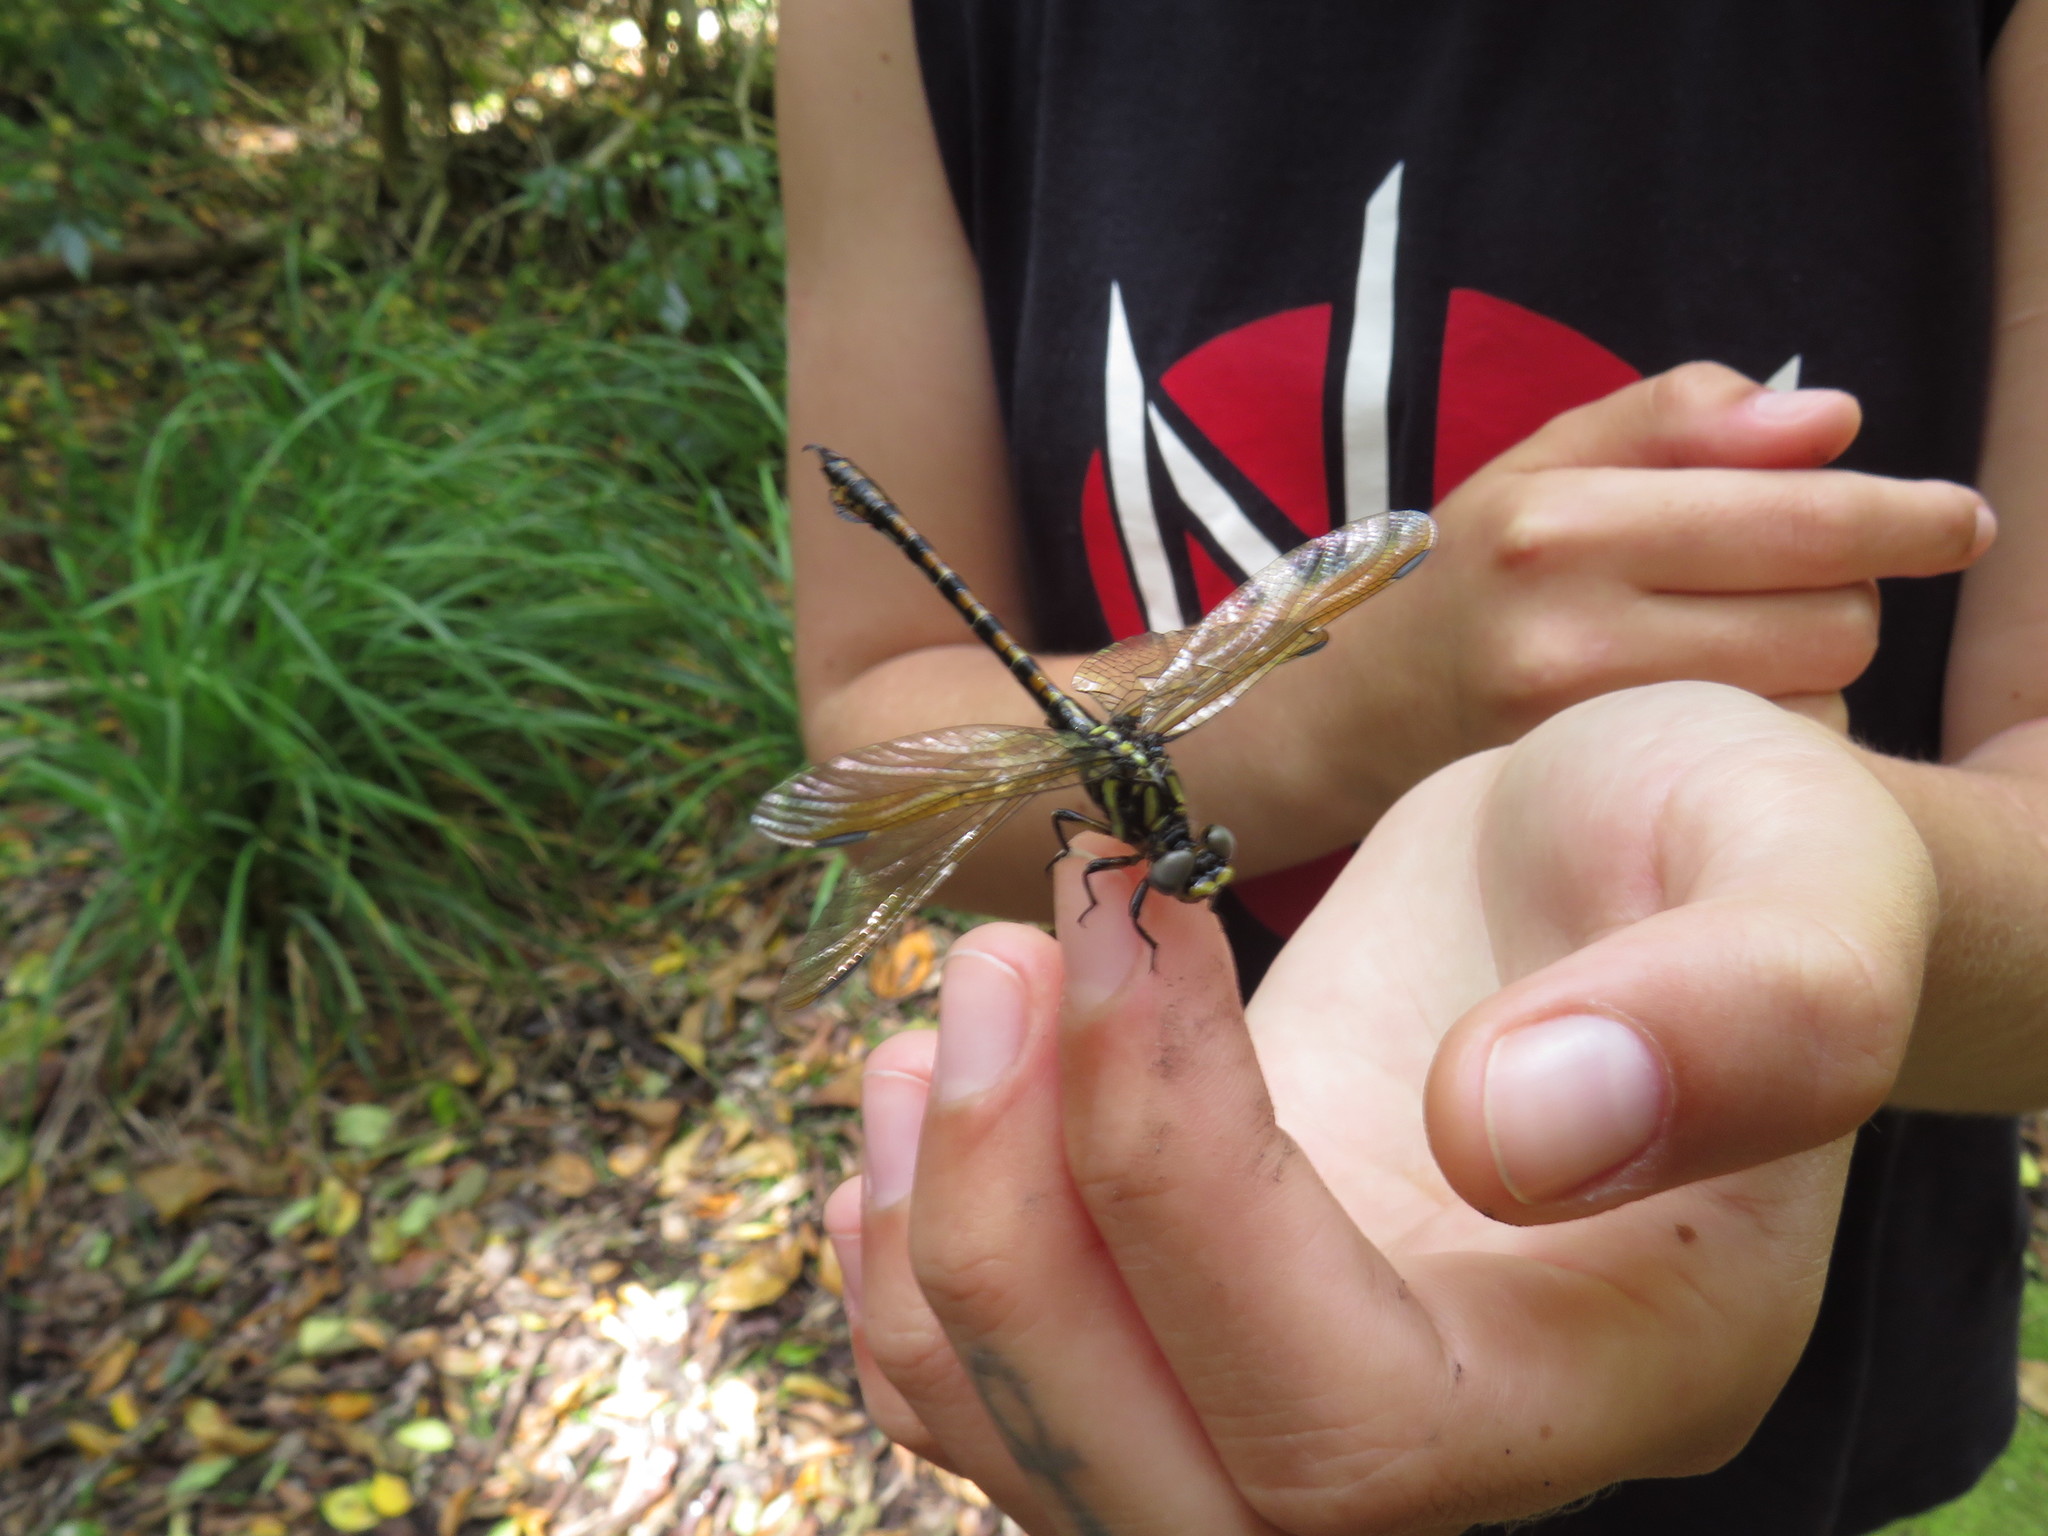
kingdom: Animalia
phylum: Arthropoda
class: Insecta
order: Odonata
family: Gomphidae
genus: Paragomphus
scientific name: Paragomphus cognatus
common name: Boulder hooktail
